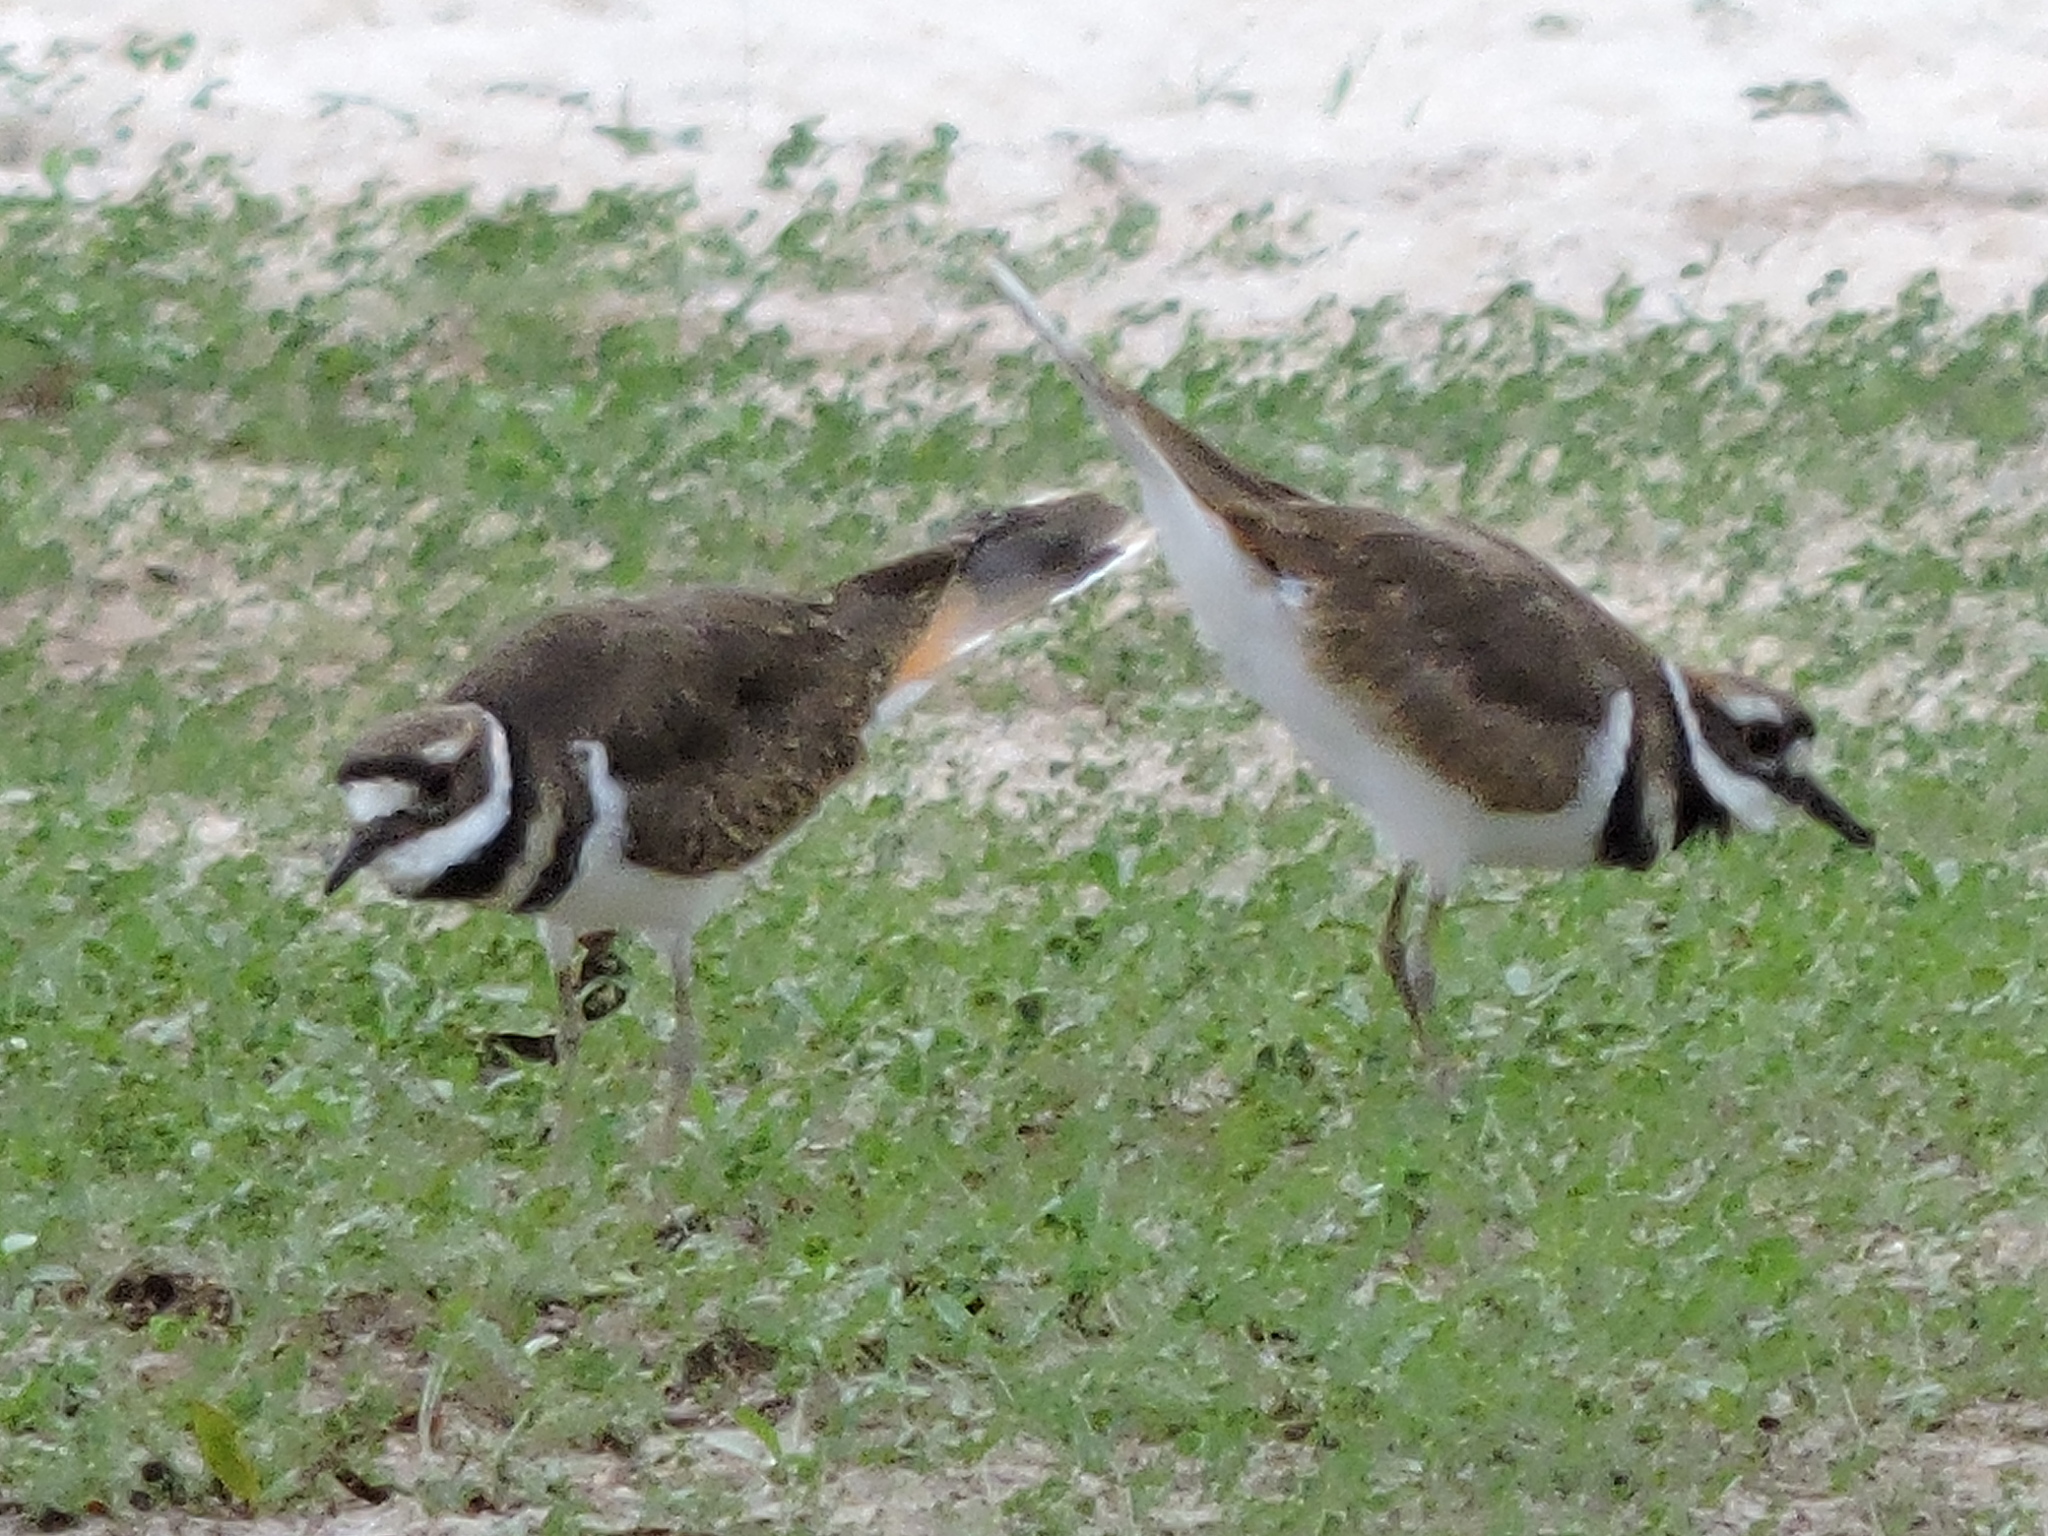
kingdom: Animalia
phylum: Chordata
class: Aves
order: Charadriiformes
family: Charadriidae
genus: Charadrius
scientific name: Charadrius vociferus
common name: Killdeer
